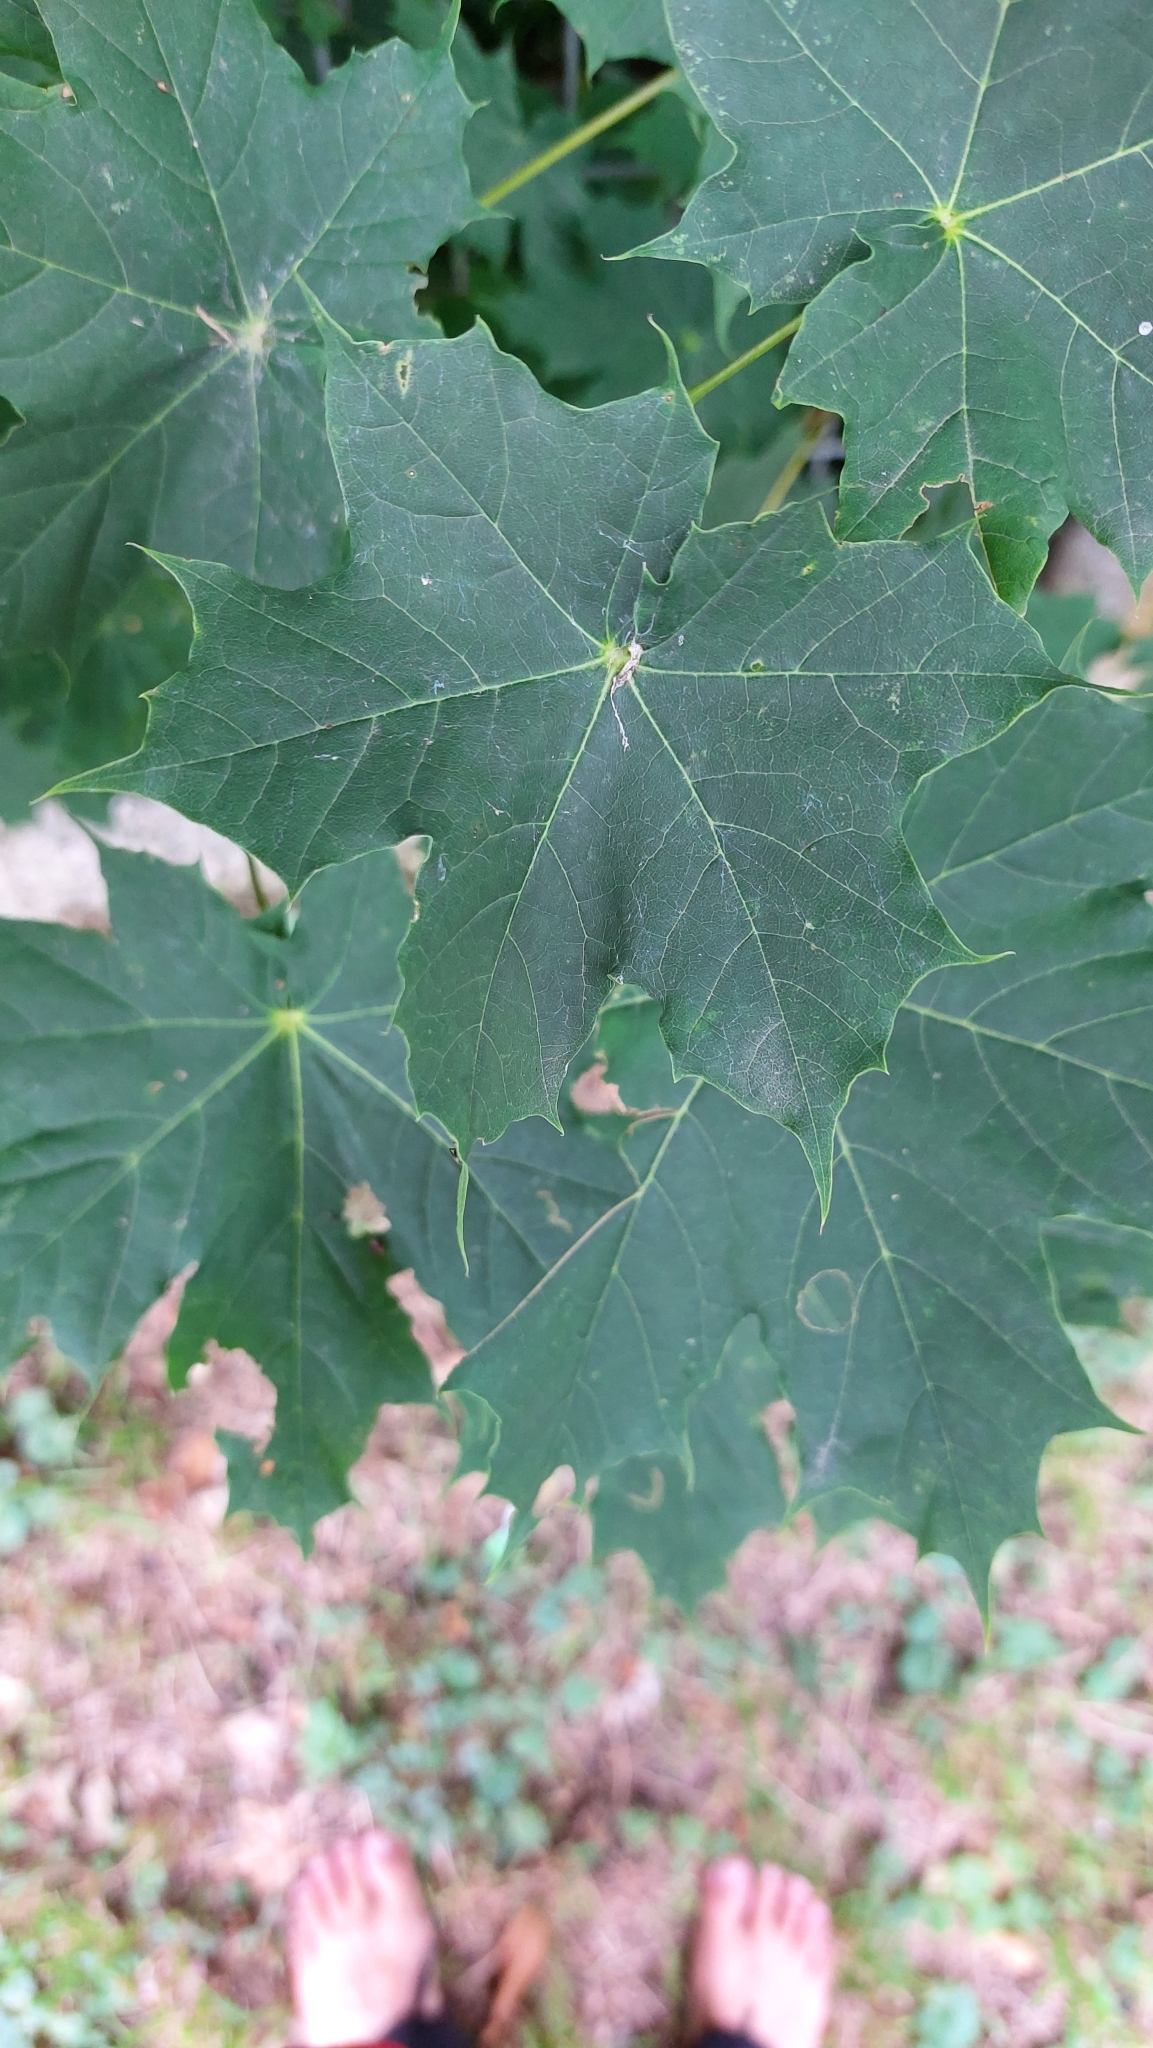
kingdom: Plantae
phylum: Tracheophyta
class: Magnoliopsida
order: Sapindales
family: Sapindaceae
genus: Acer
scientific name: Acer platanoides
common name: Norway maple
